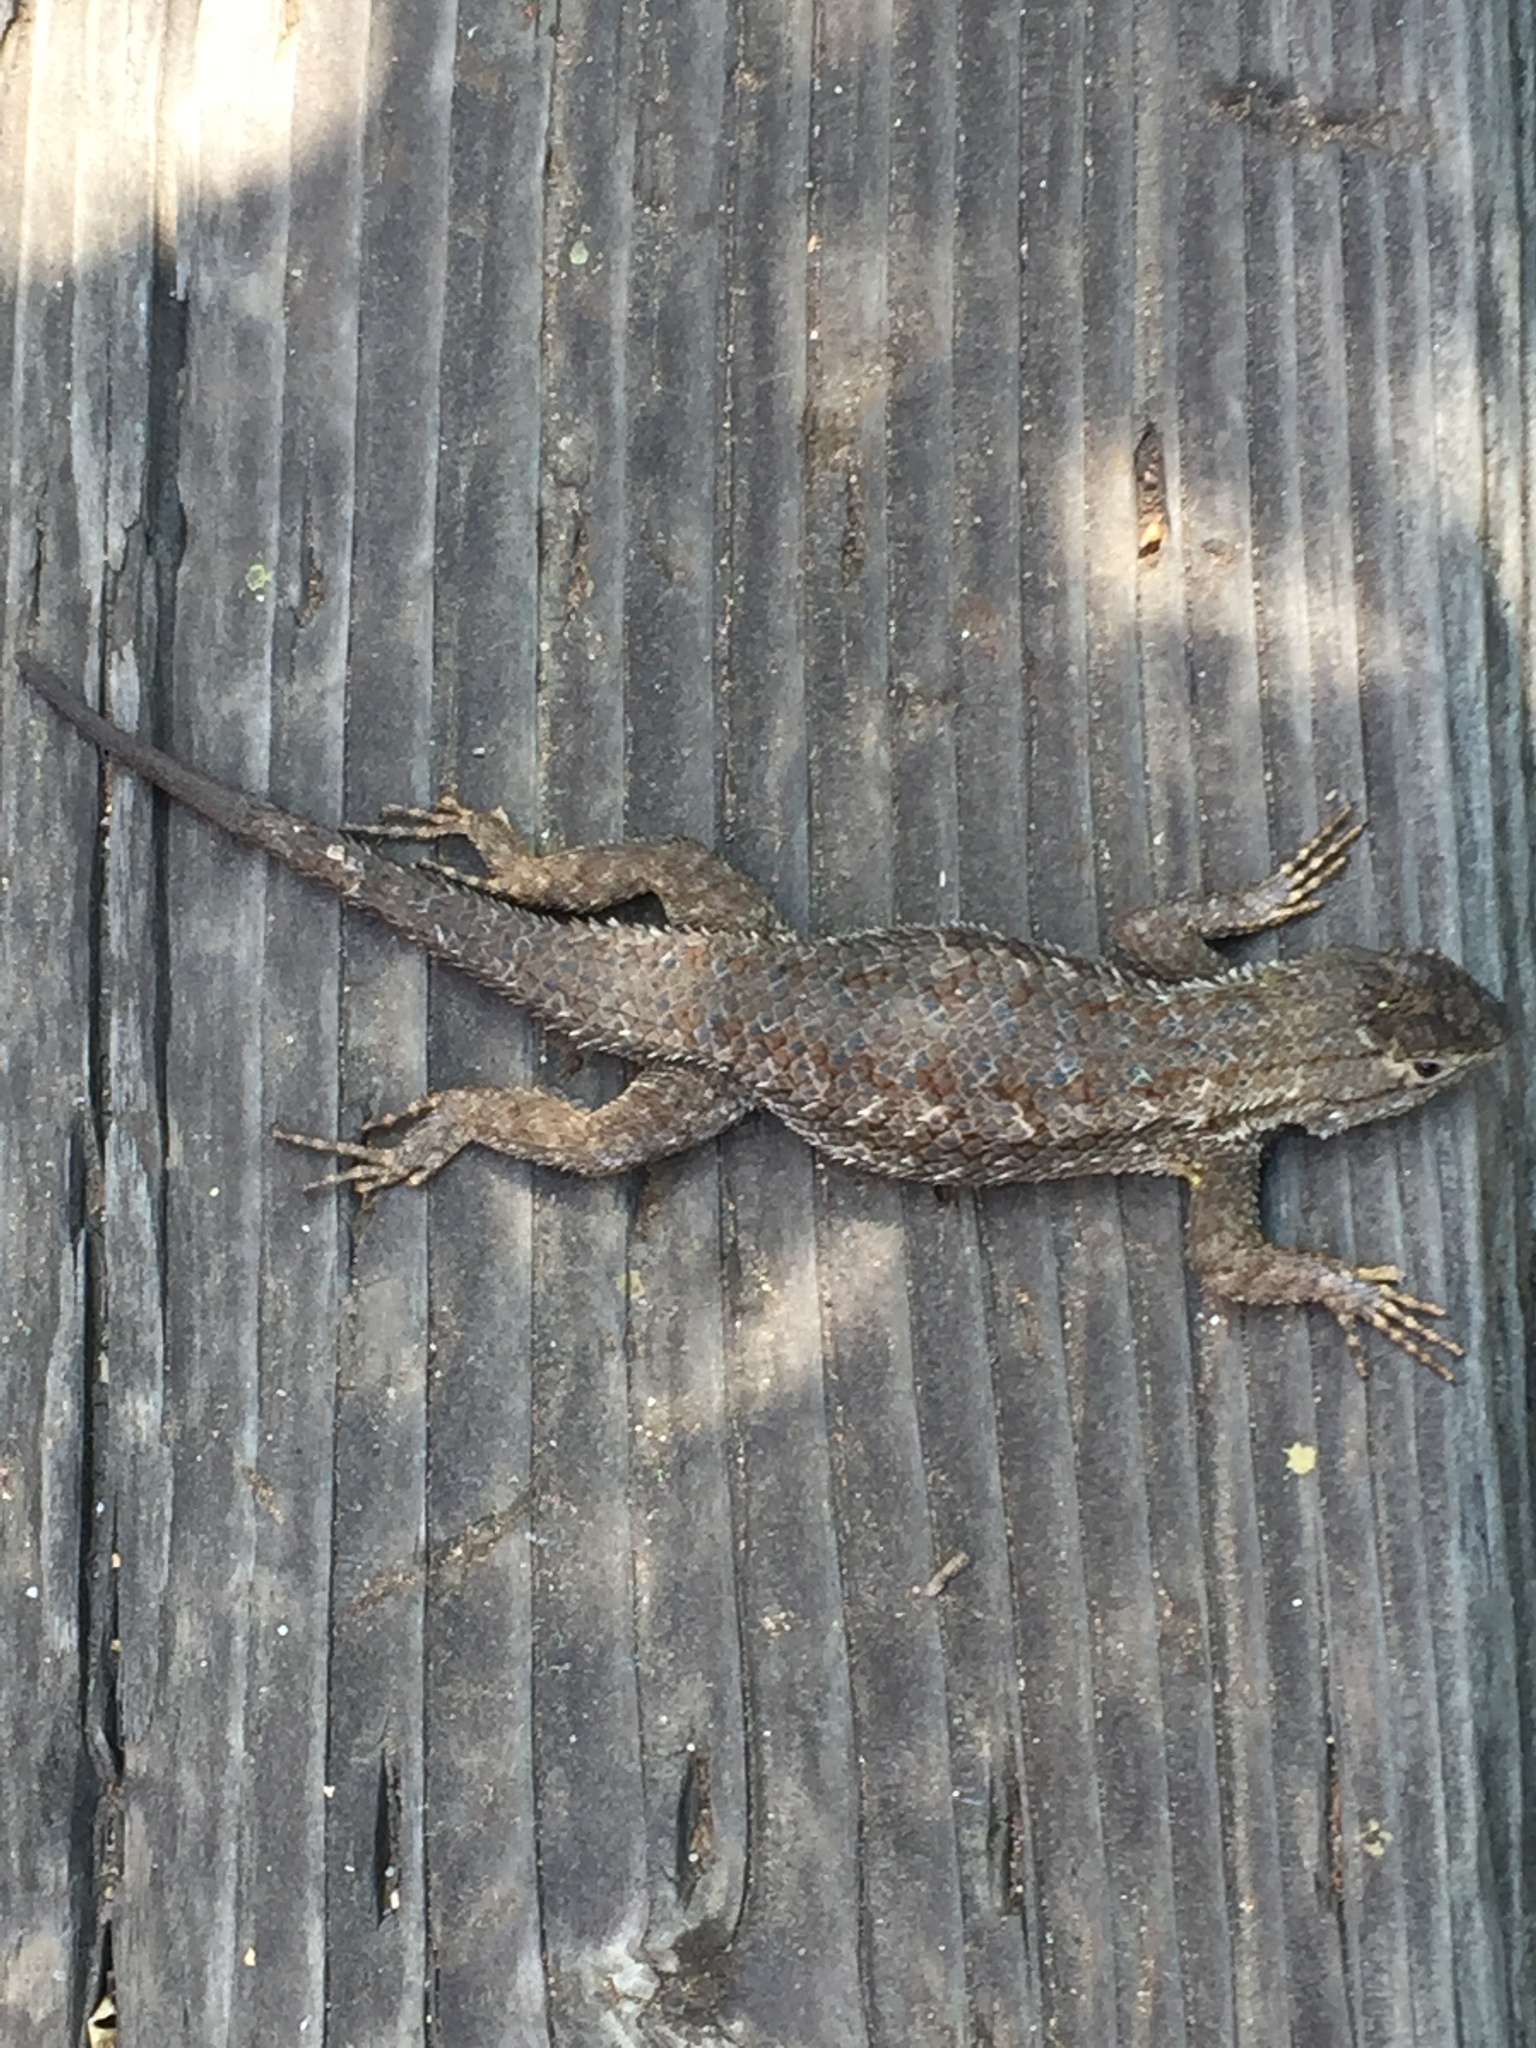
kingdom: Animalia
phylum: Chordata
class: Squamata
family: Phrynosomatidae
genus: Sceloporus
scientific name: Sceloporus occidentalis
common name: Western fence lizard
